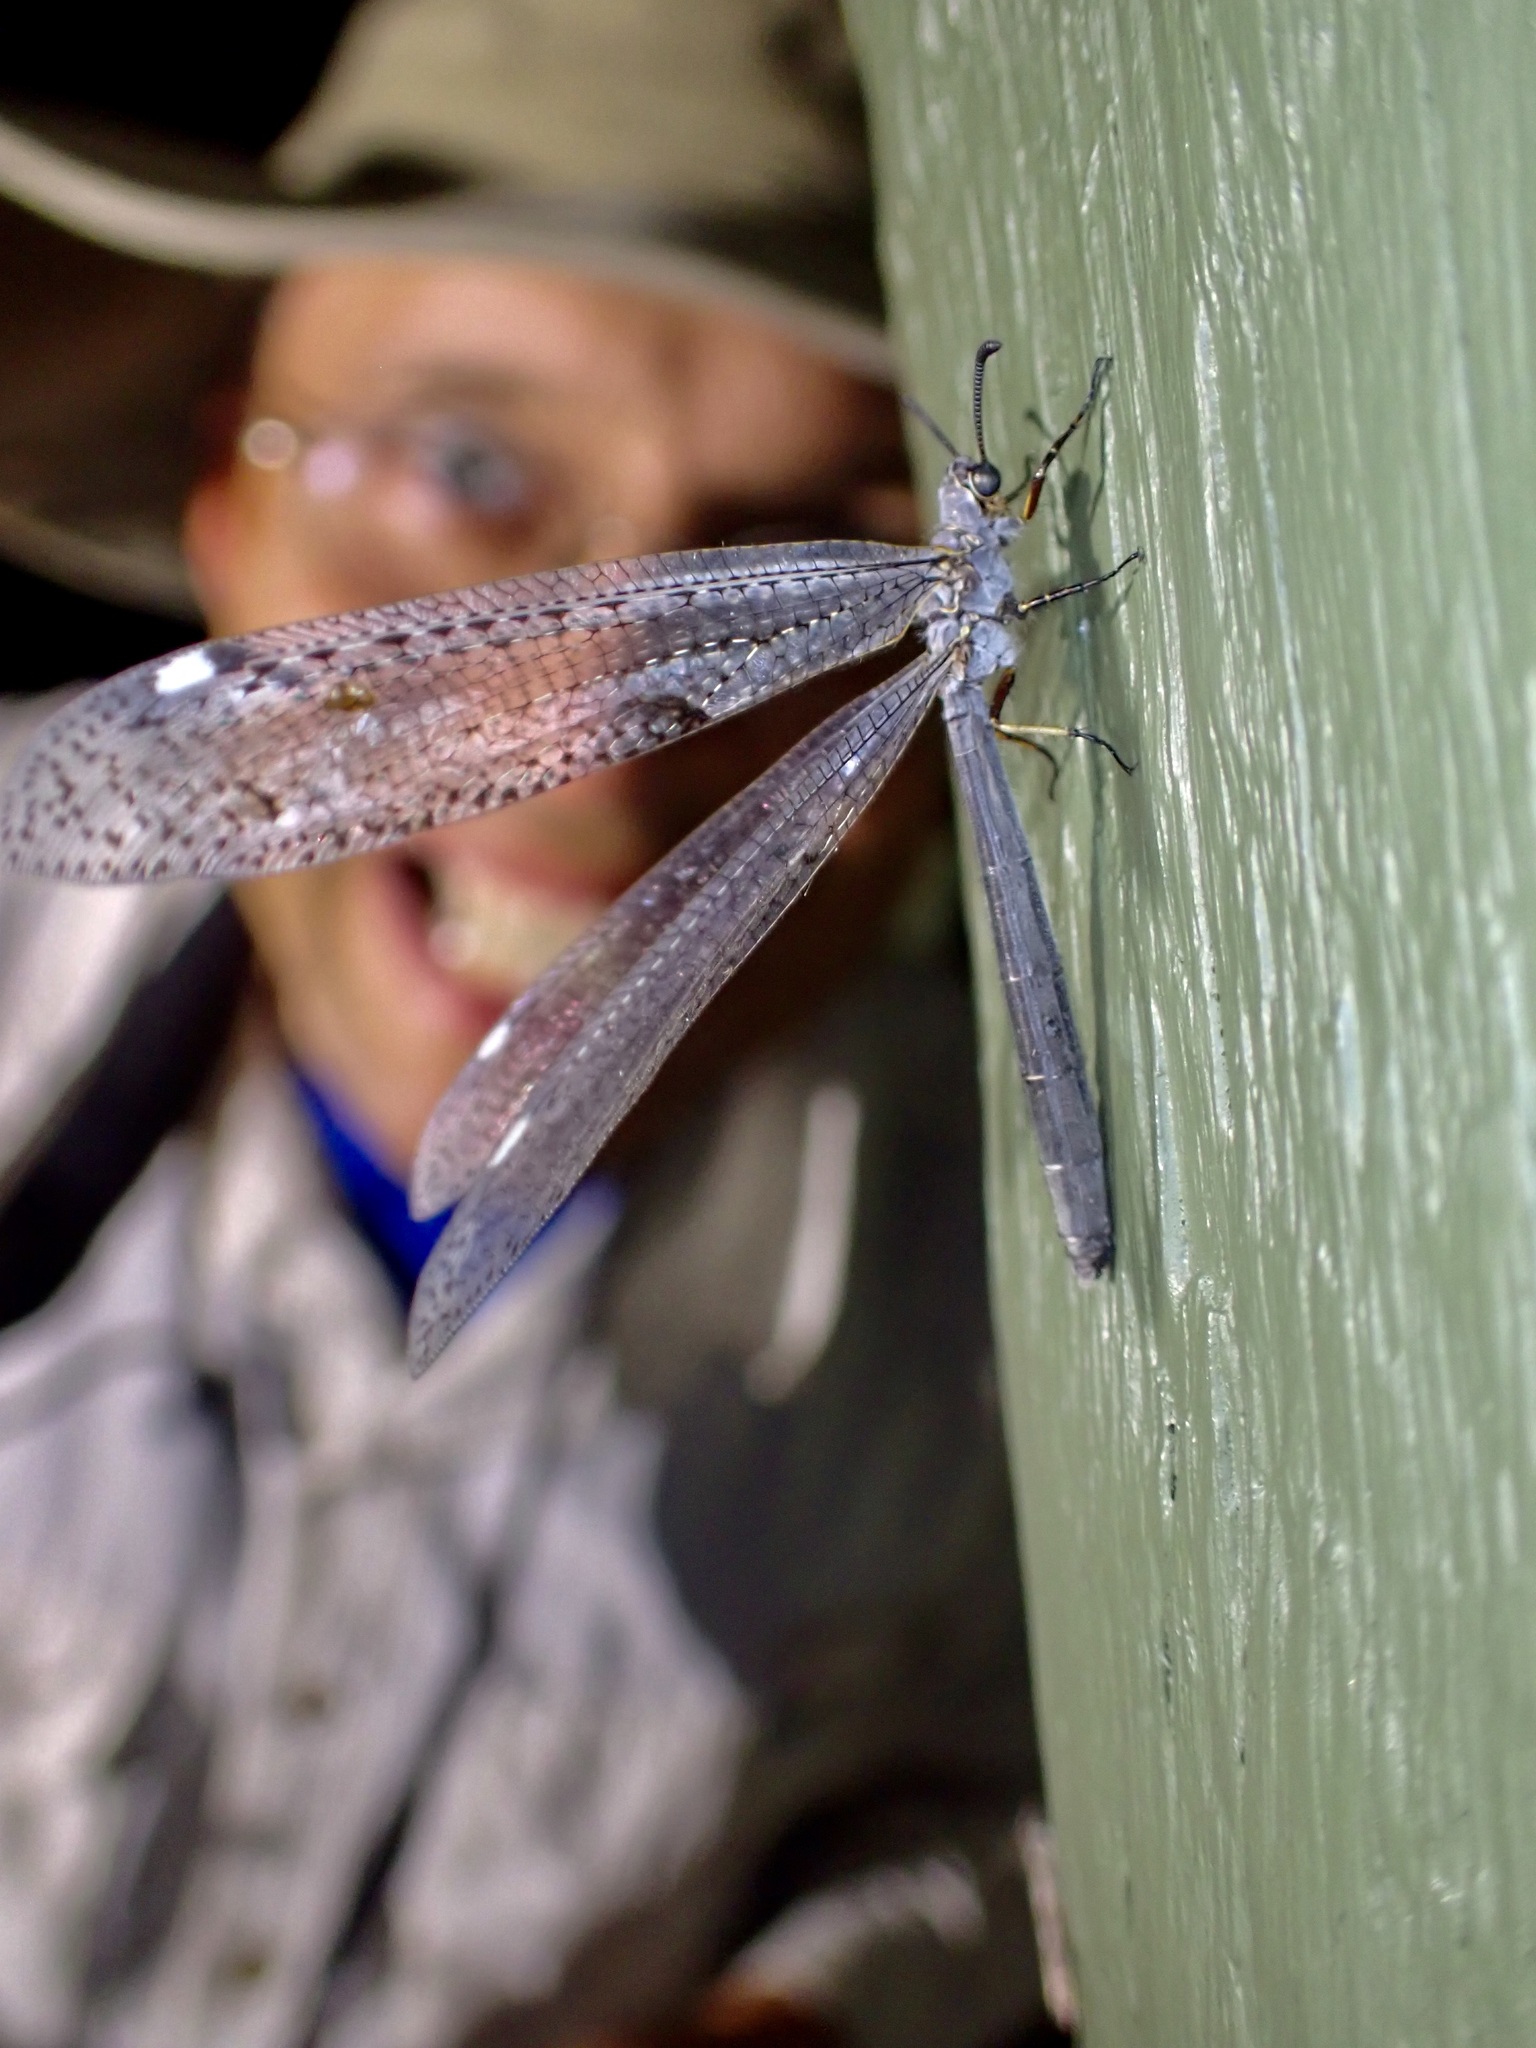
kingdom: Animalia
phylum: Arthropoda
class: Insecta
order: Neuroptera
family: Myrmeleontidae
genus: Weeleus
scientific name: Weeleus acutus
